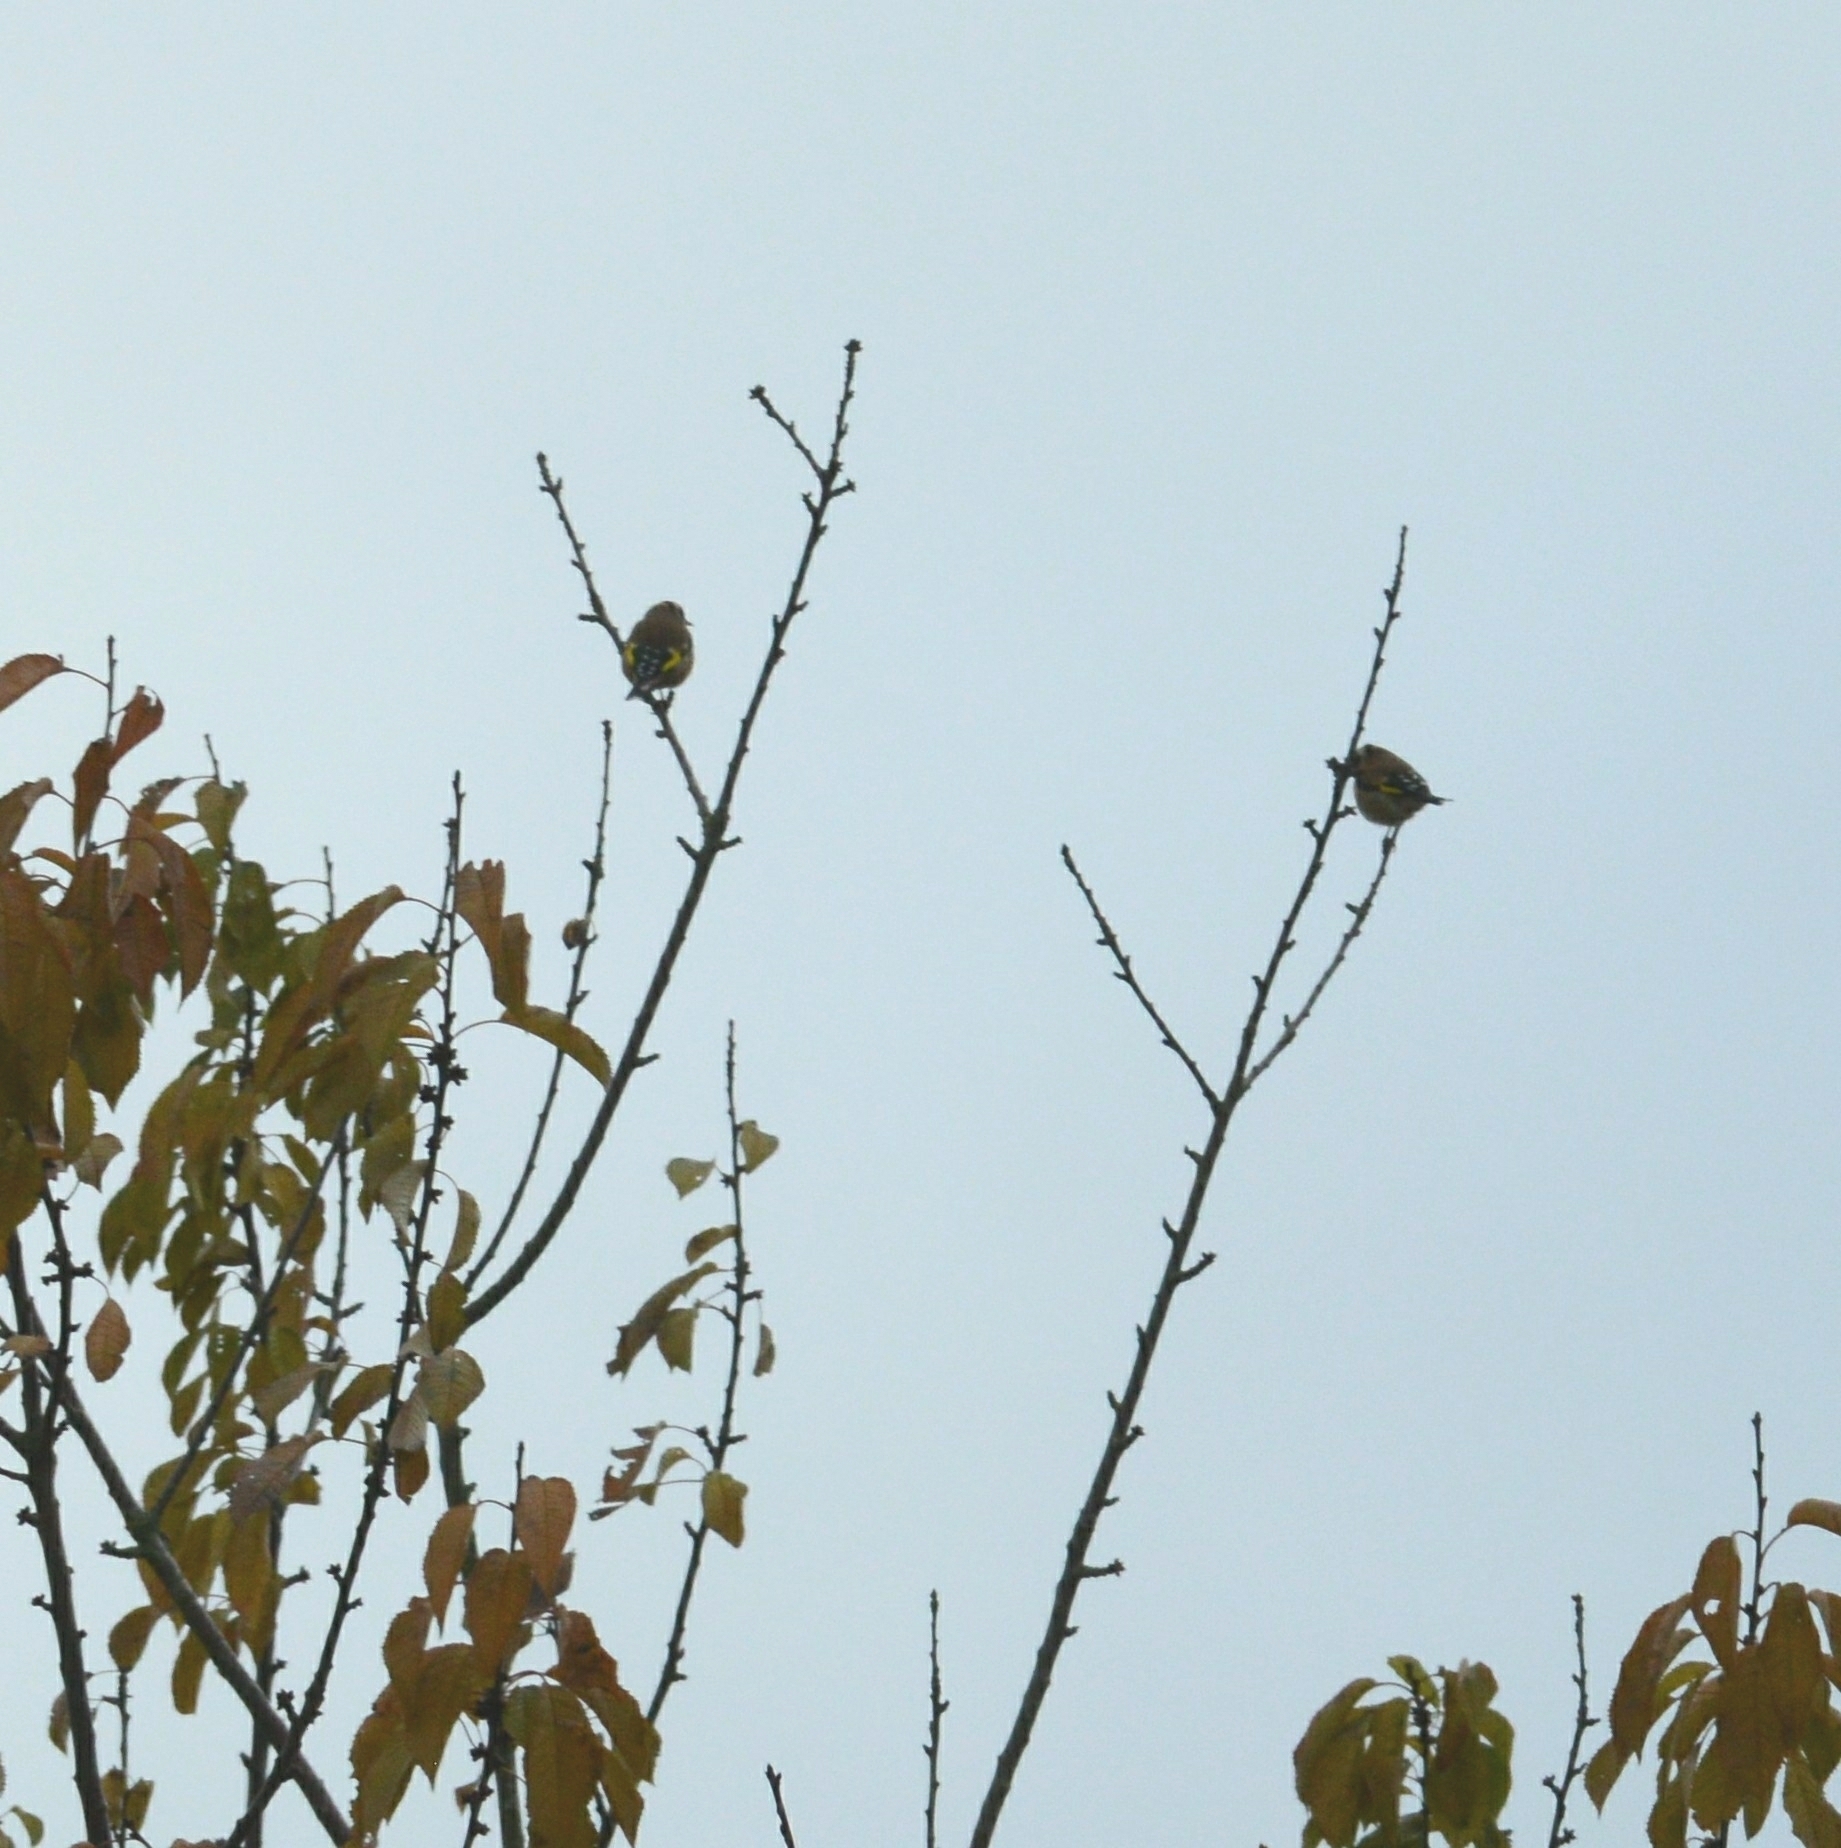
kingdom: Animalia
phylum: Chordata
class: Aves
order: Passeriformes
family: Fringillidae
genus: Carduelis
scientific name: Carduelis carduelis
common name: European goldfinch
